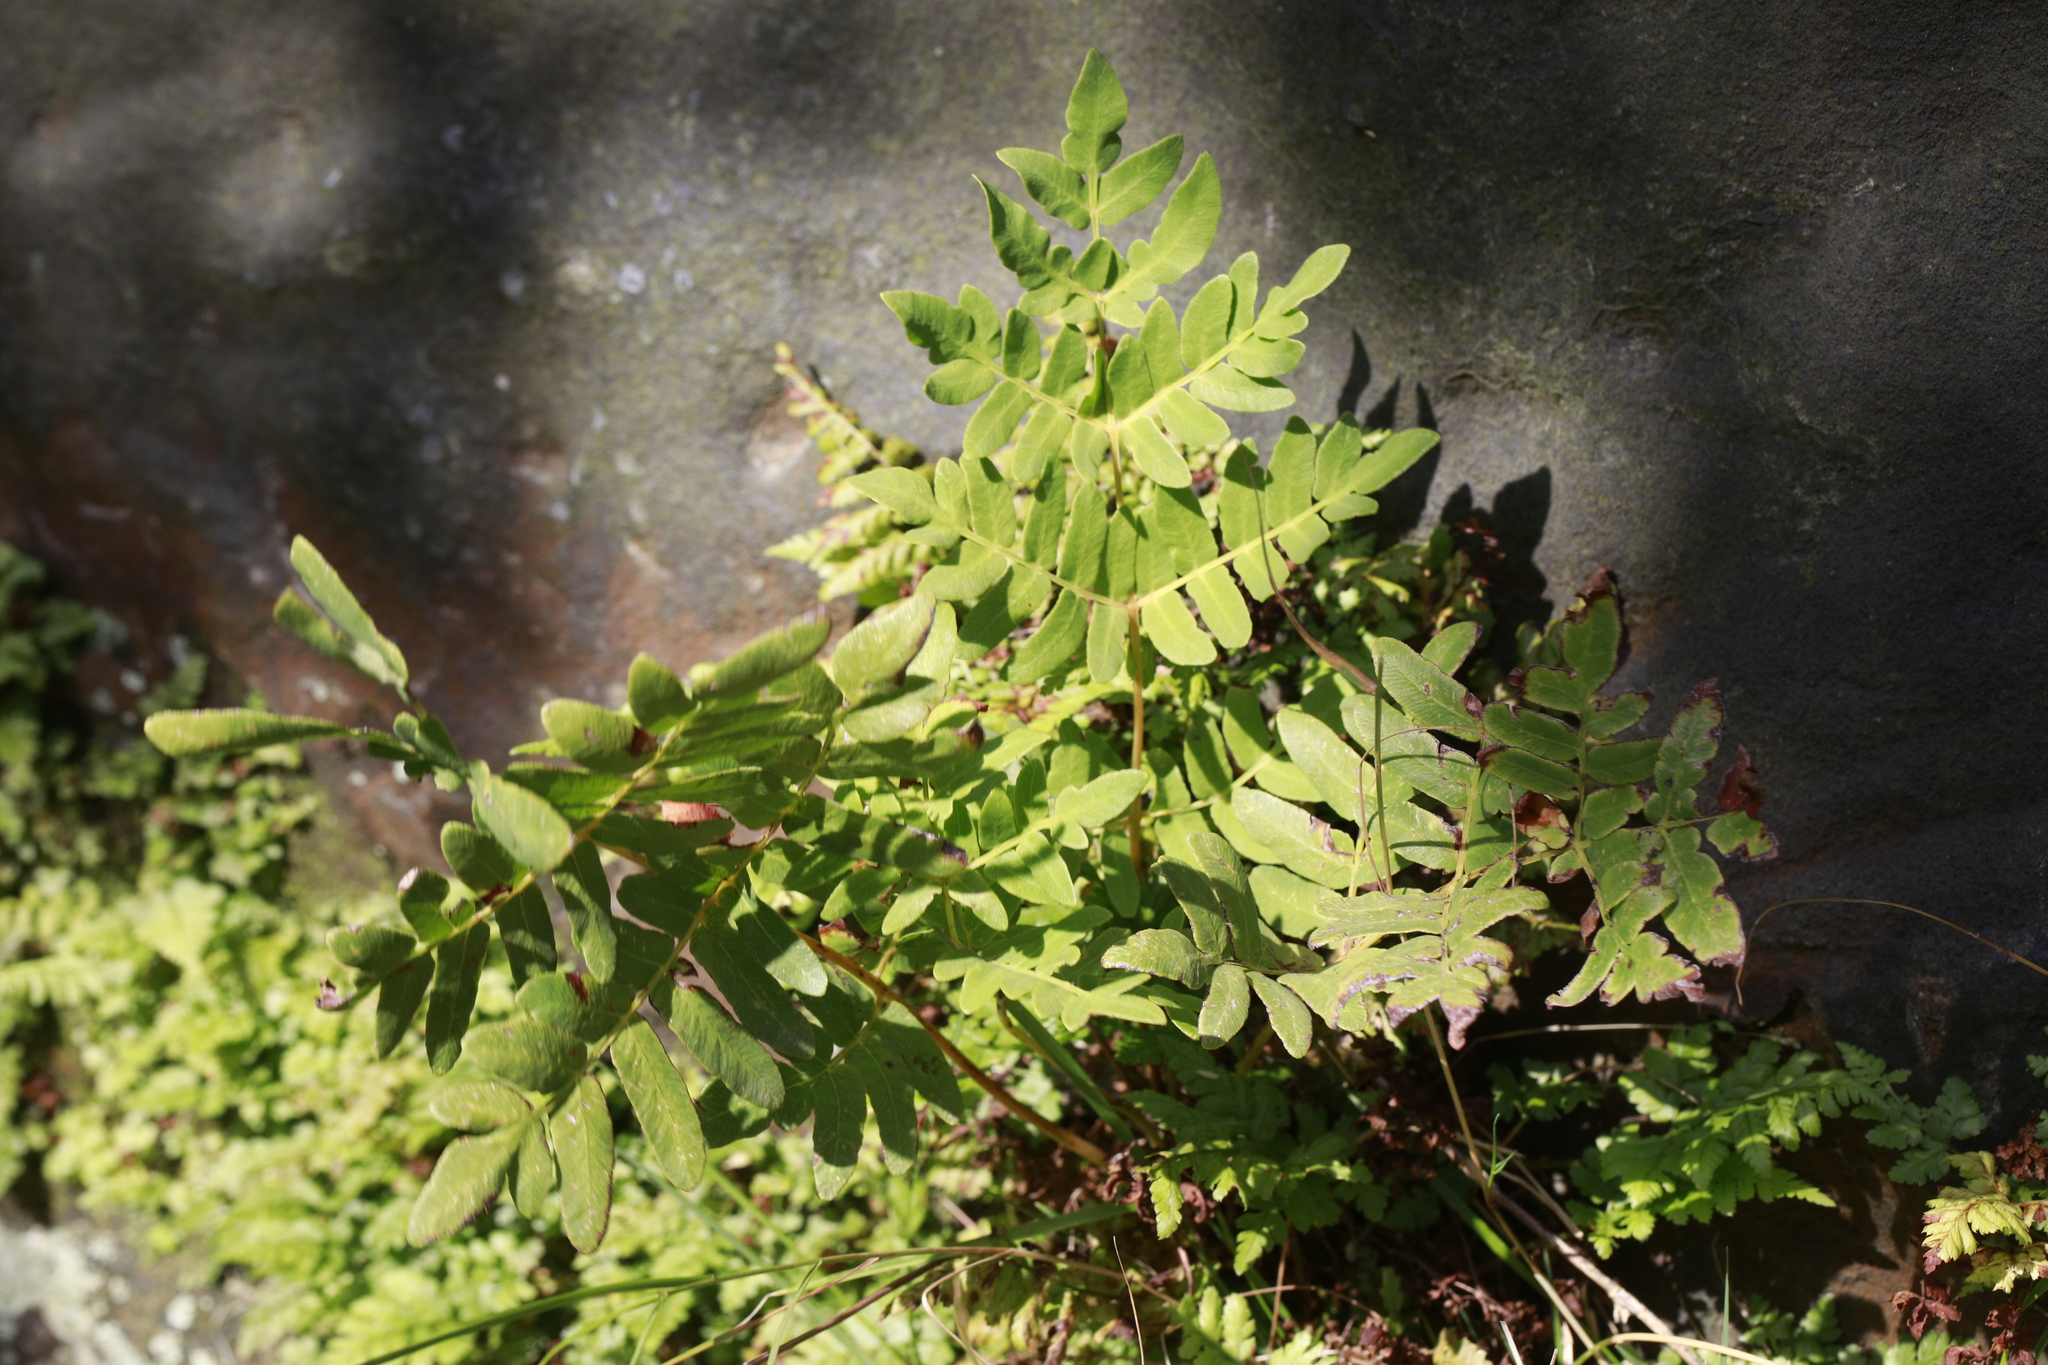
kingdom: Plantae
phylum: Tracheophyta
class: Polypodiopsida
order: Osmundales
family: Osmundaceae
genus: Osmunda
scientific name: Osmunda regalis
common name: Royal fern
